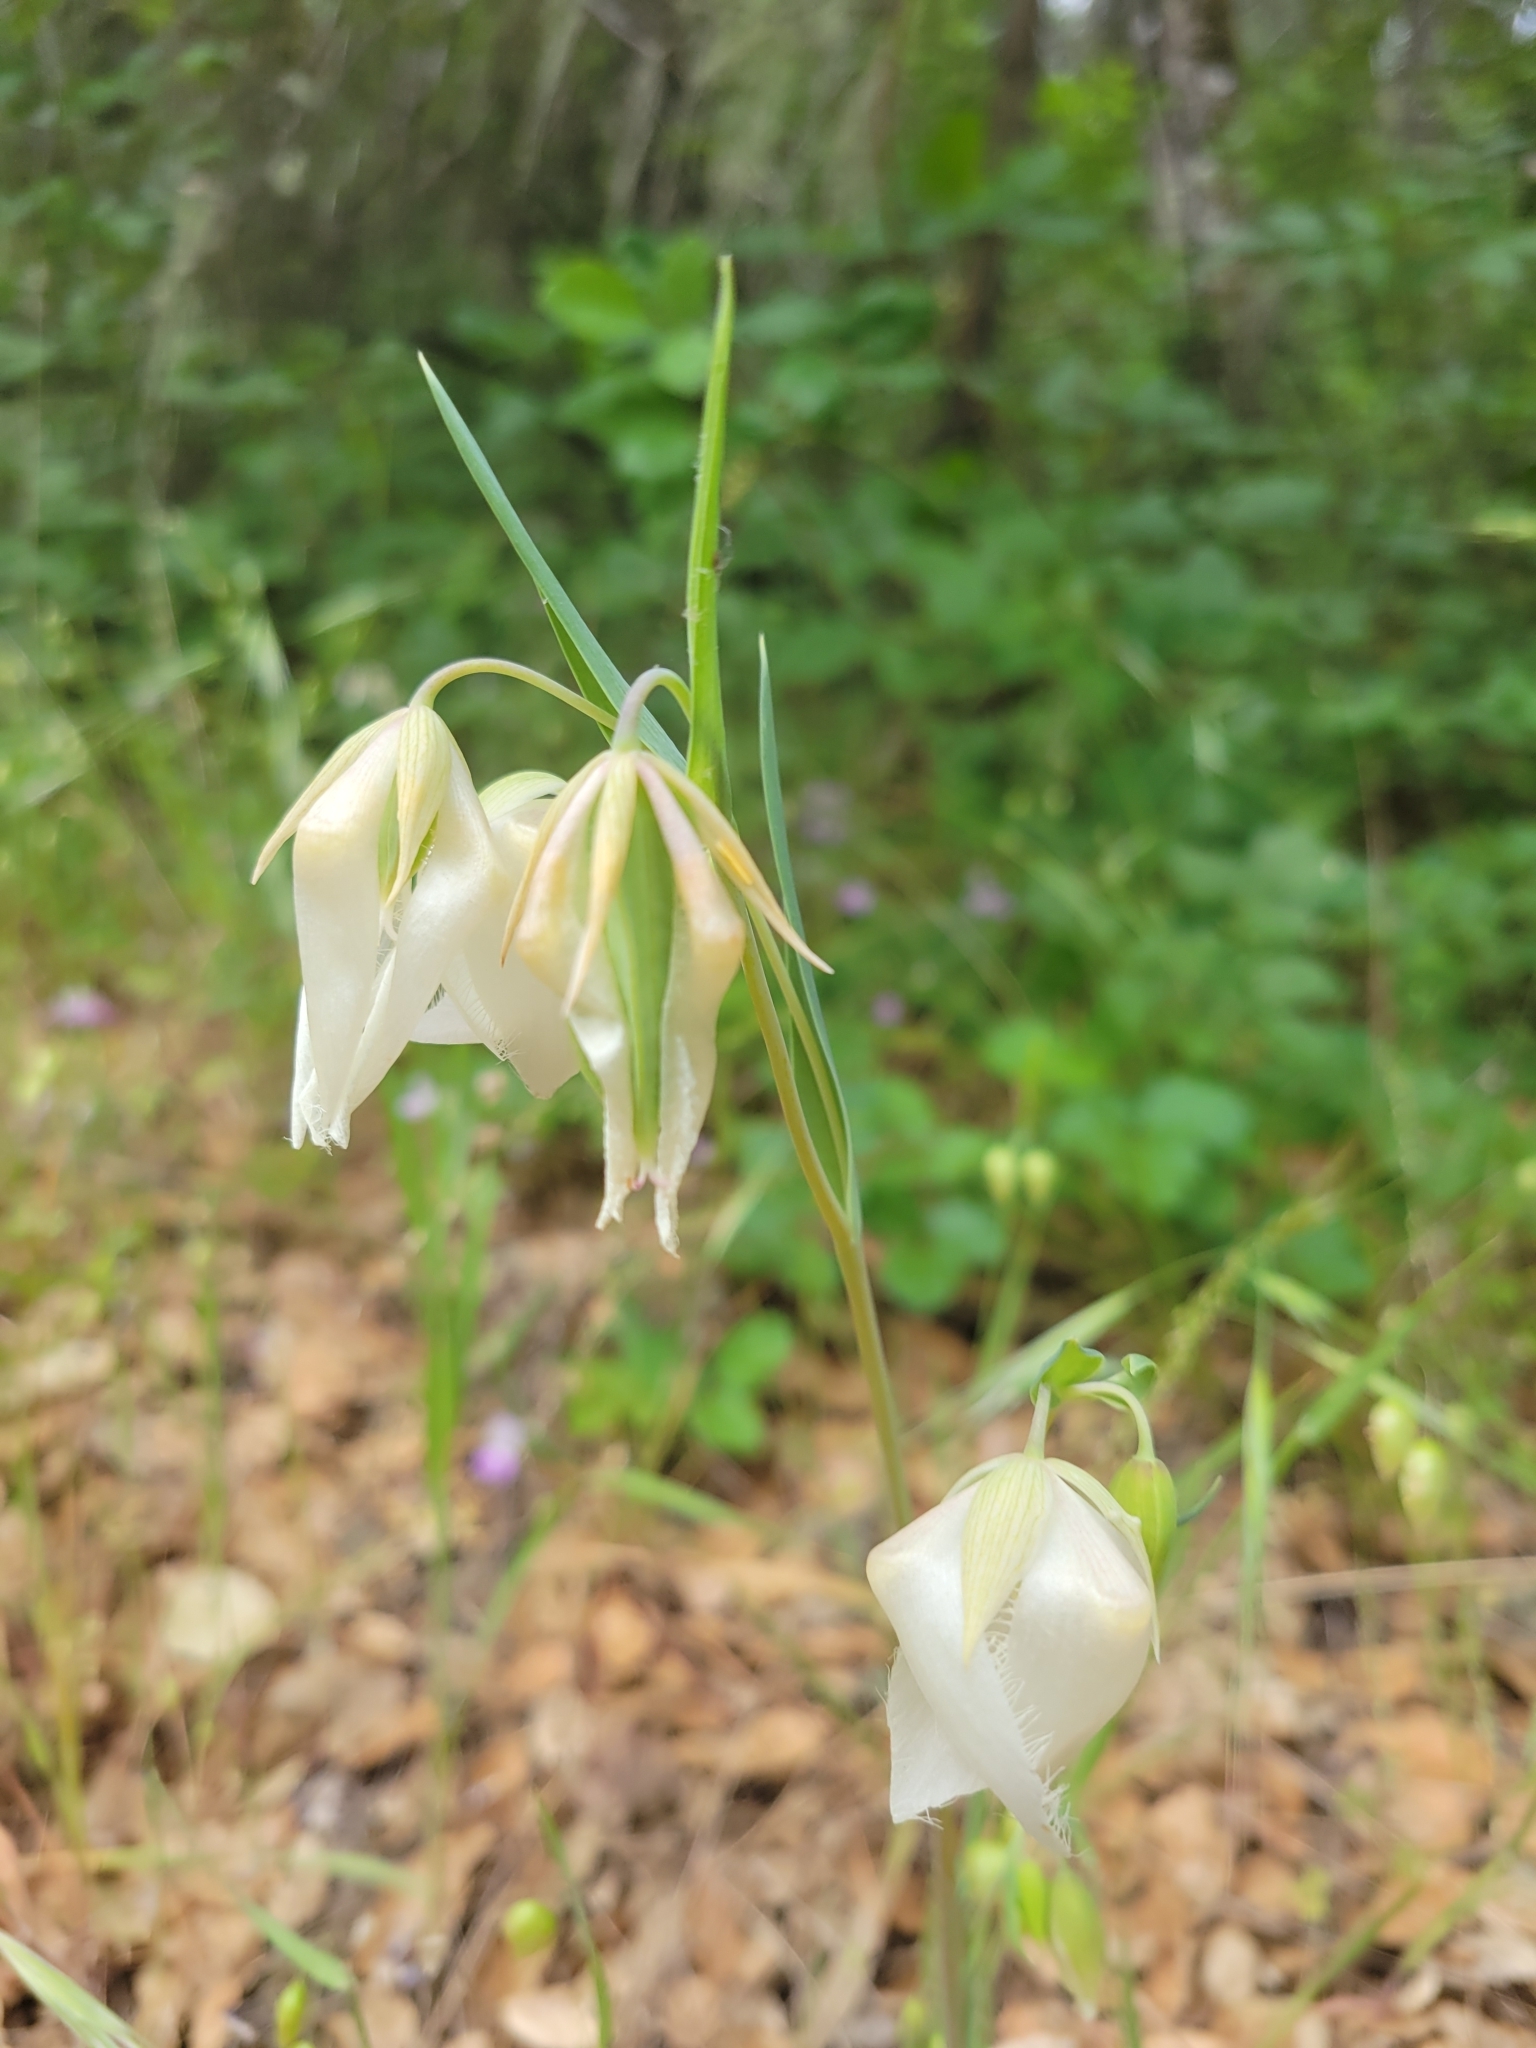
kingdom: Plantae
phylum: Tracheophyta
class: Liliopsida
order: Liliales
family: Liliaceae
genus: Calochortus
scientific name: Calochortus albus
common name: Fairy-lantern
